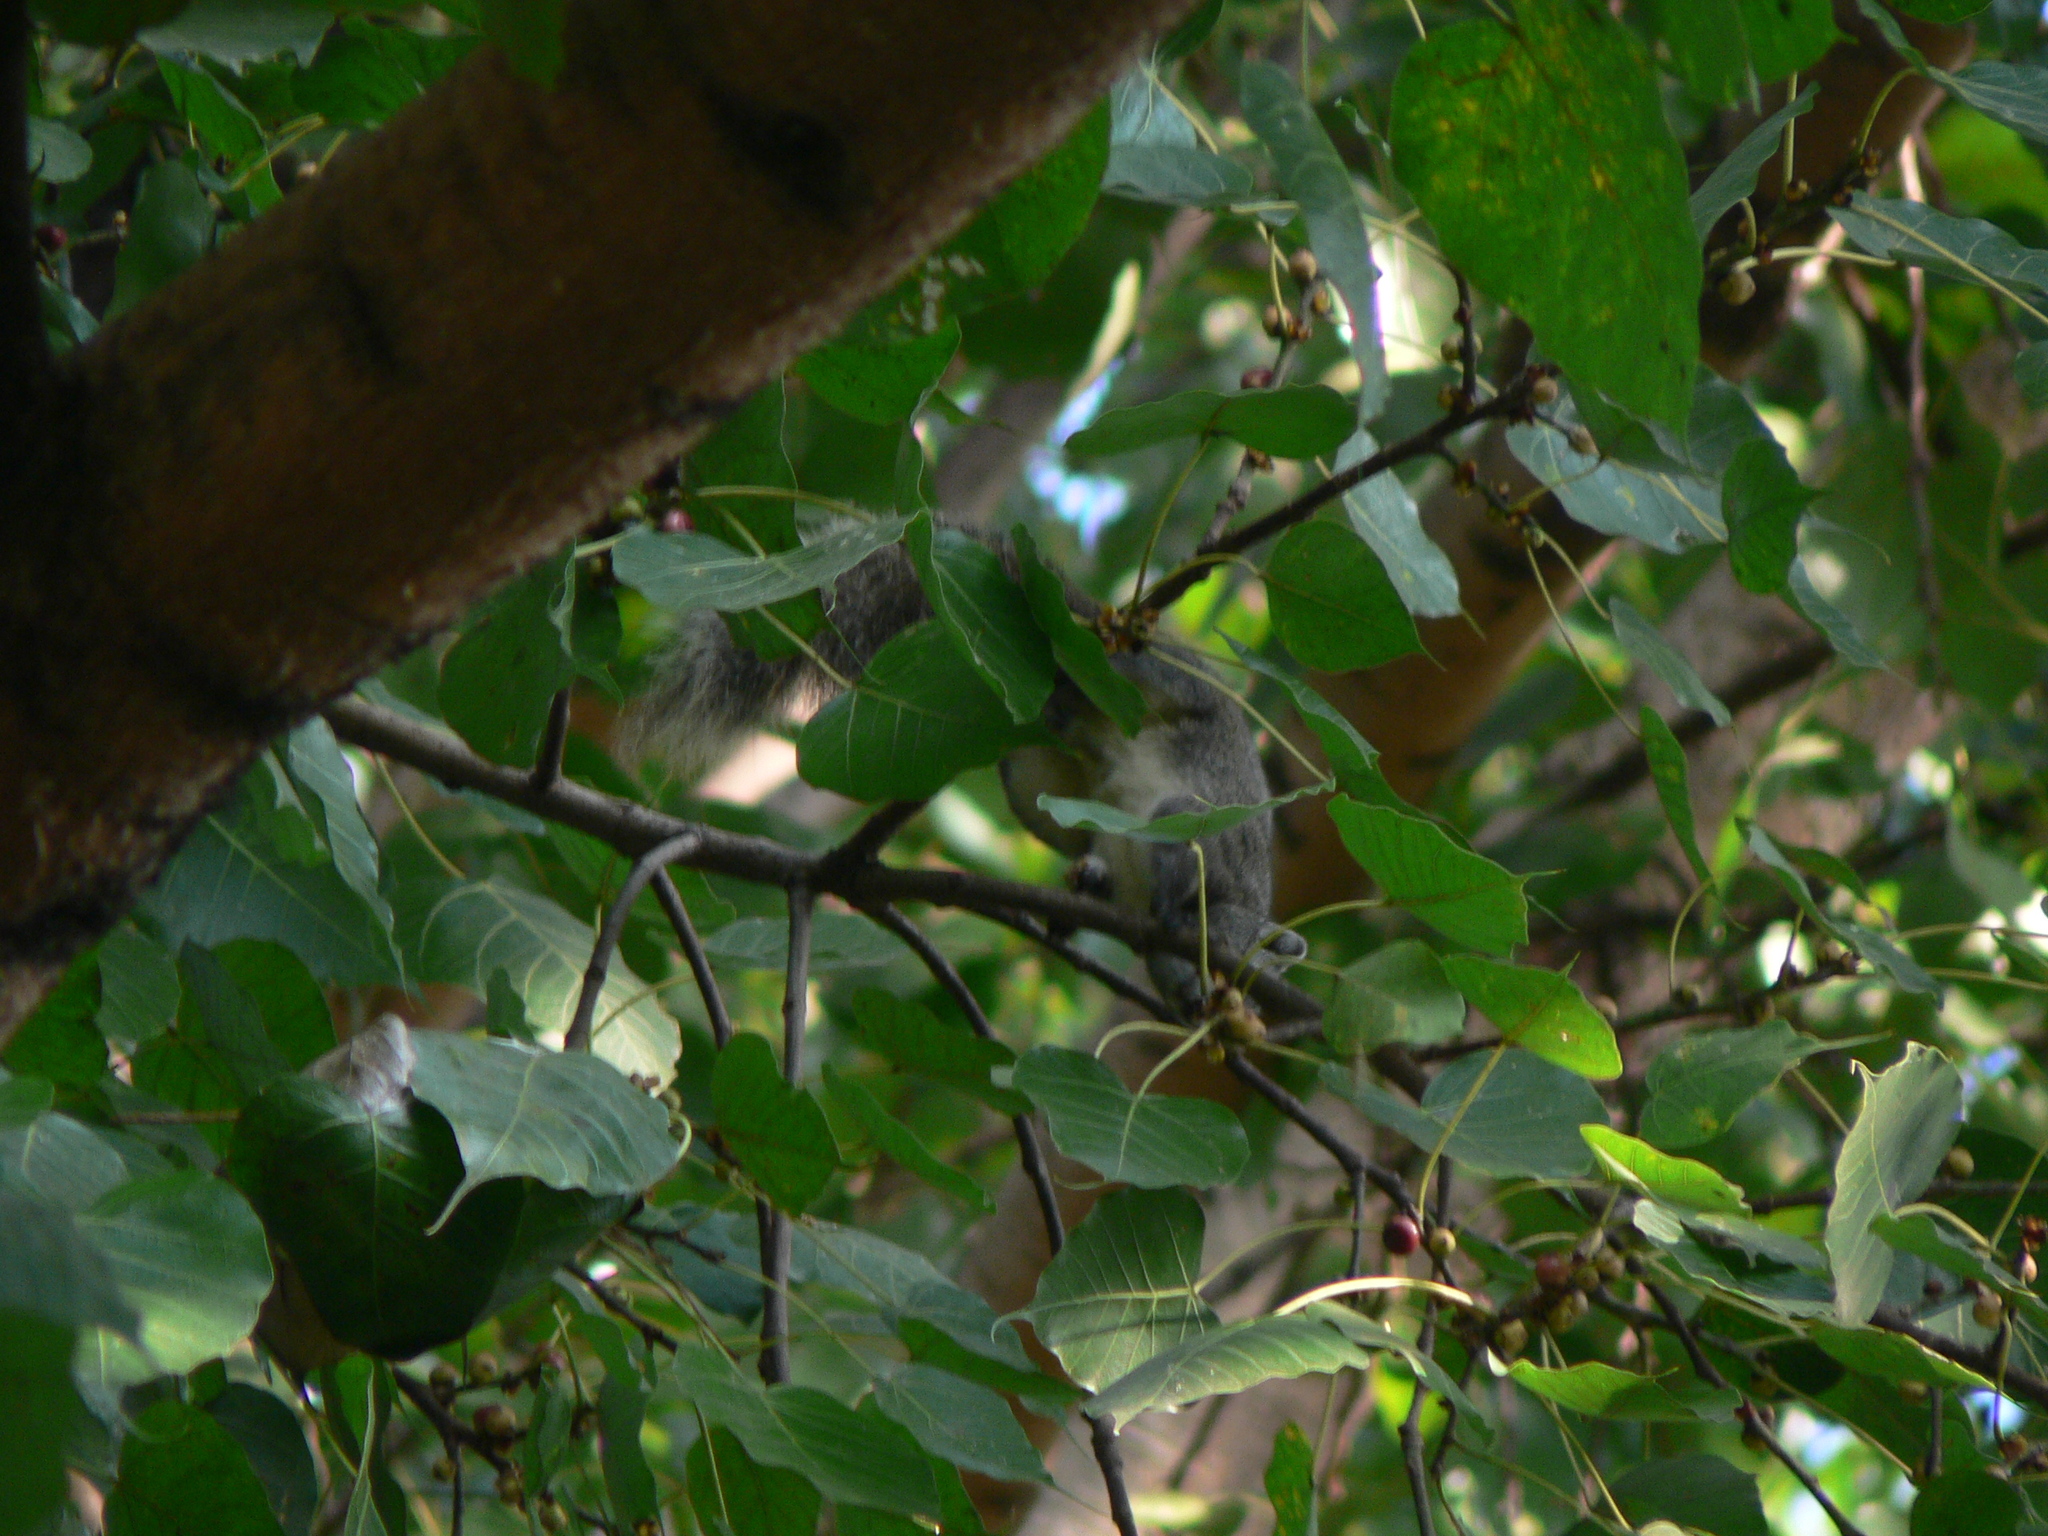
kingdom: Animalia
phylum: Chordata
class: Mammalia
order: Rodentia
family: Sciuridae
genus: Callosciurus
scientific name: Callosciurus finlaysonii
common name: Finlayson's squirrel
